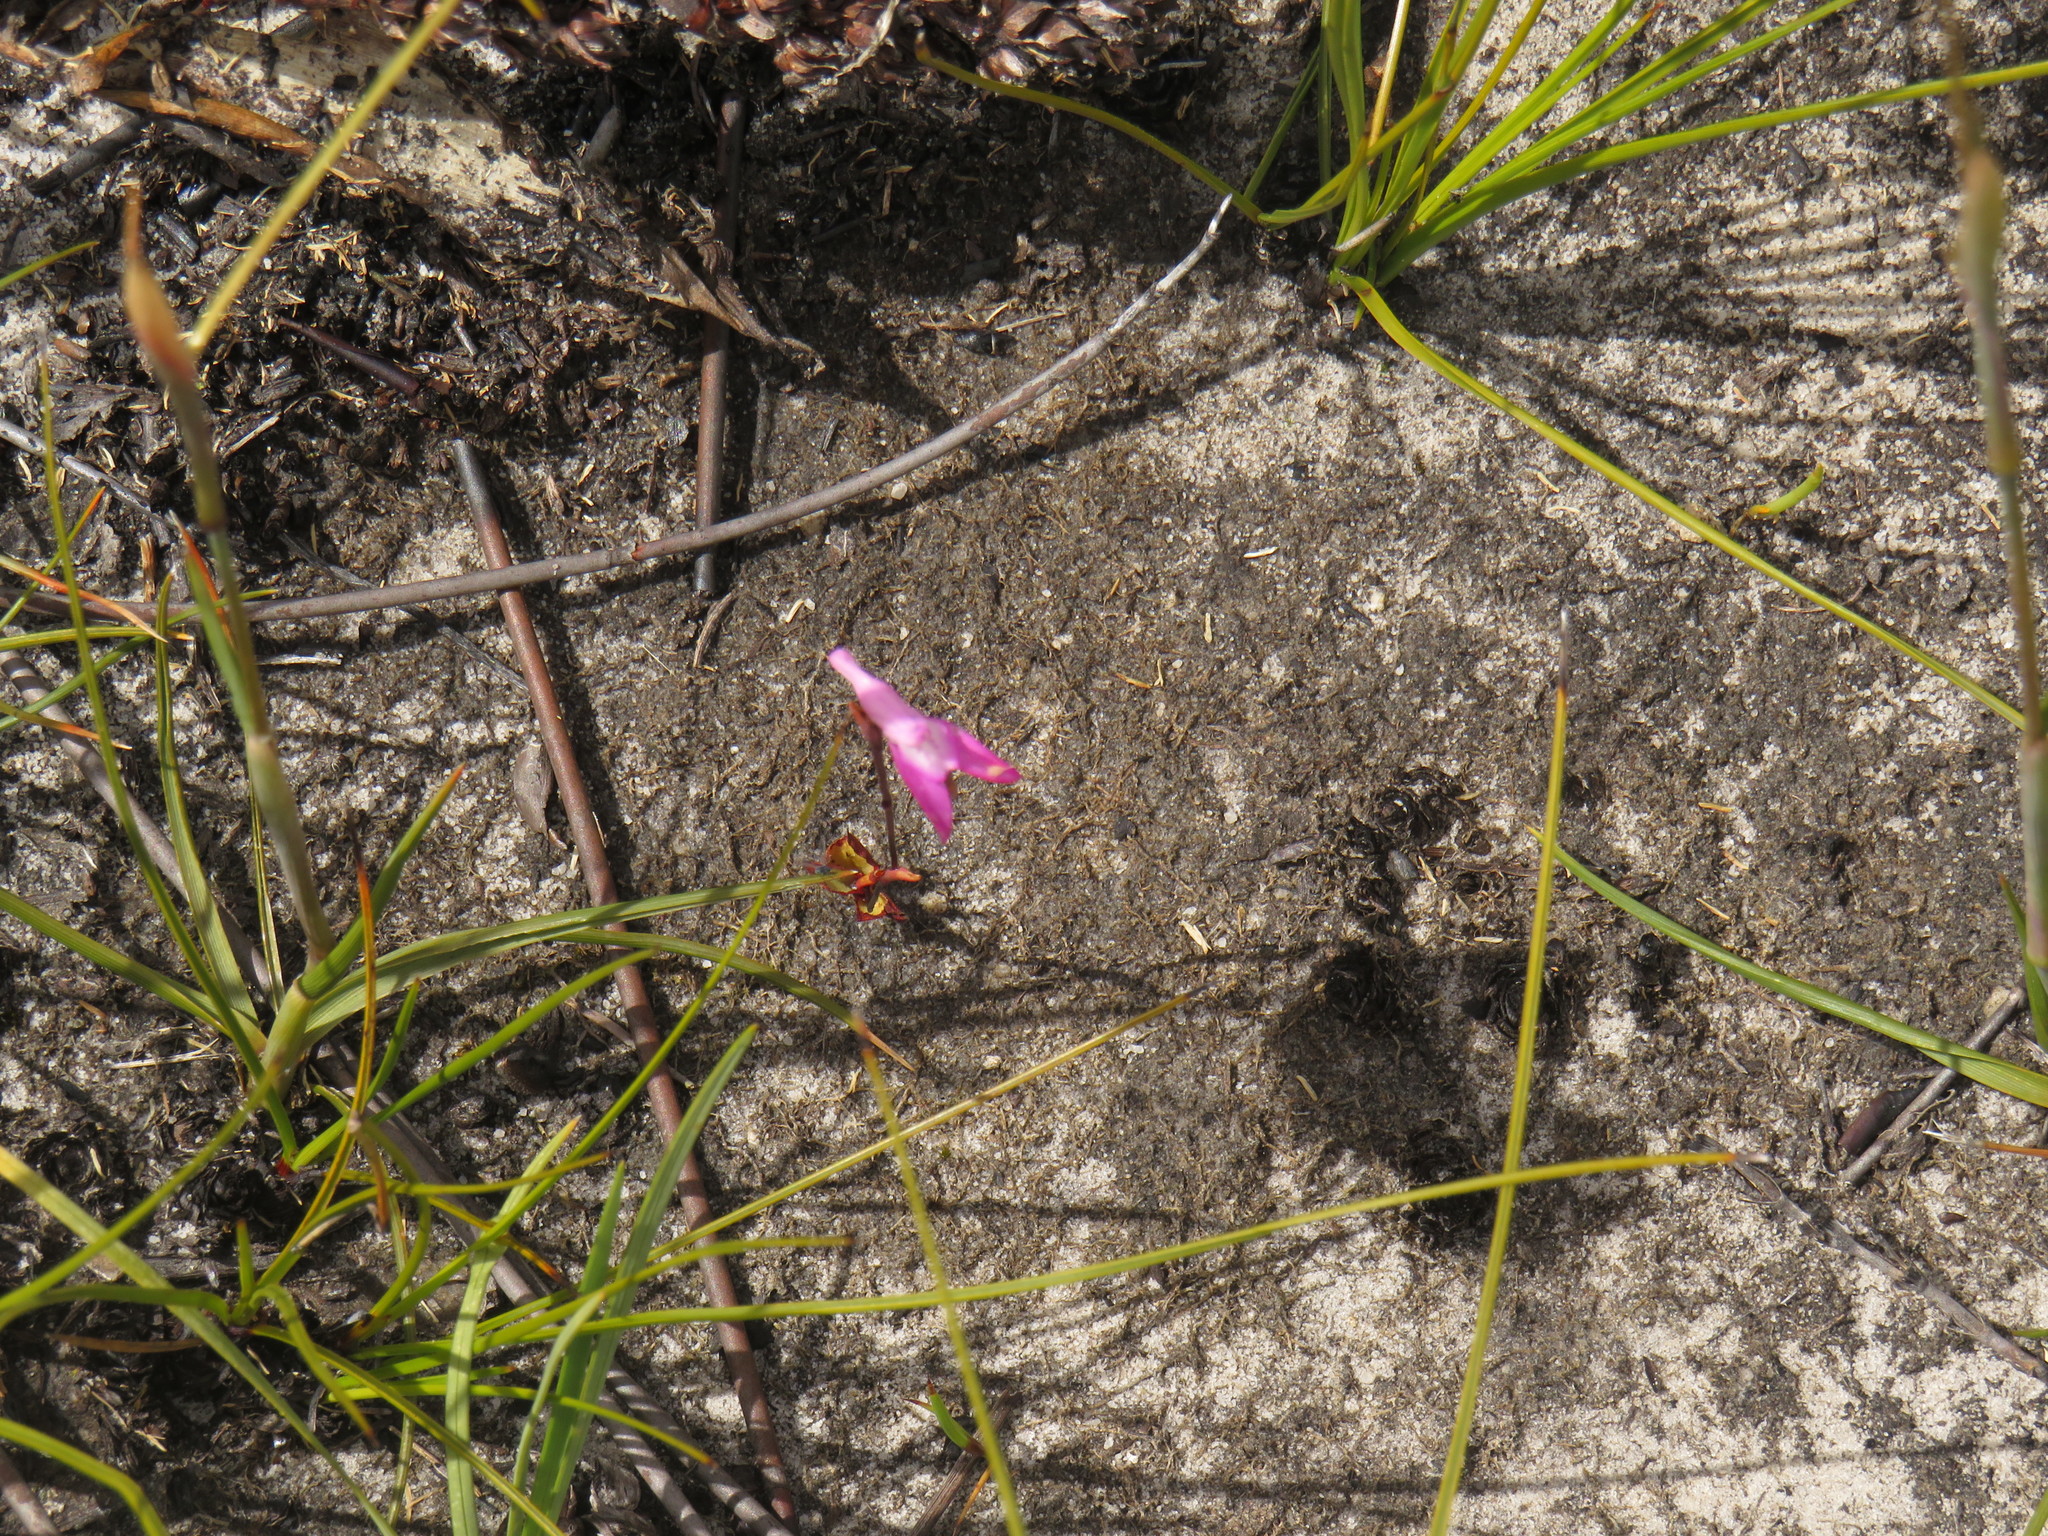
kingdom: Plantae
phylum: Tracheophyta
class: Liliopsida
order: Asparagales
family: Orchidaceae
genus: Disa
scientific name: Disa inflexa
